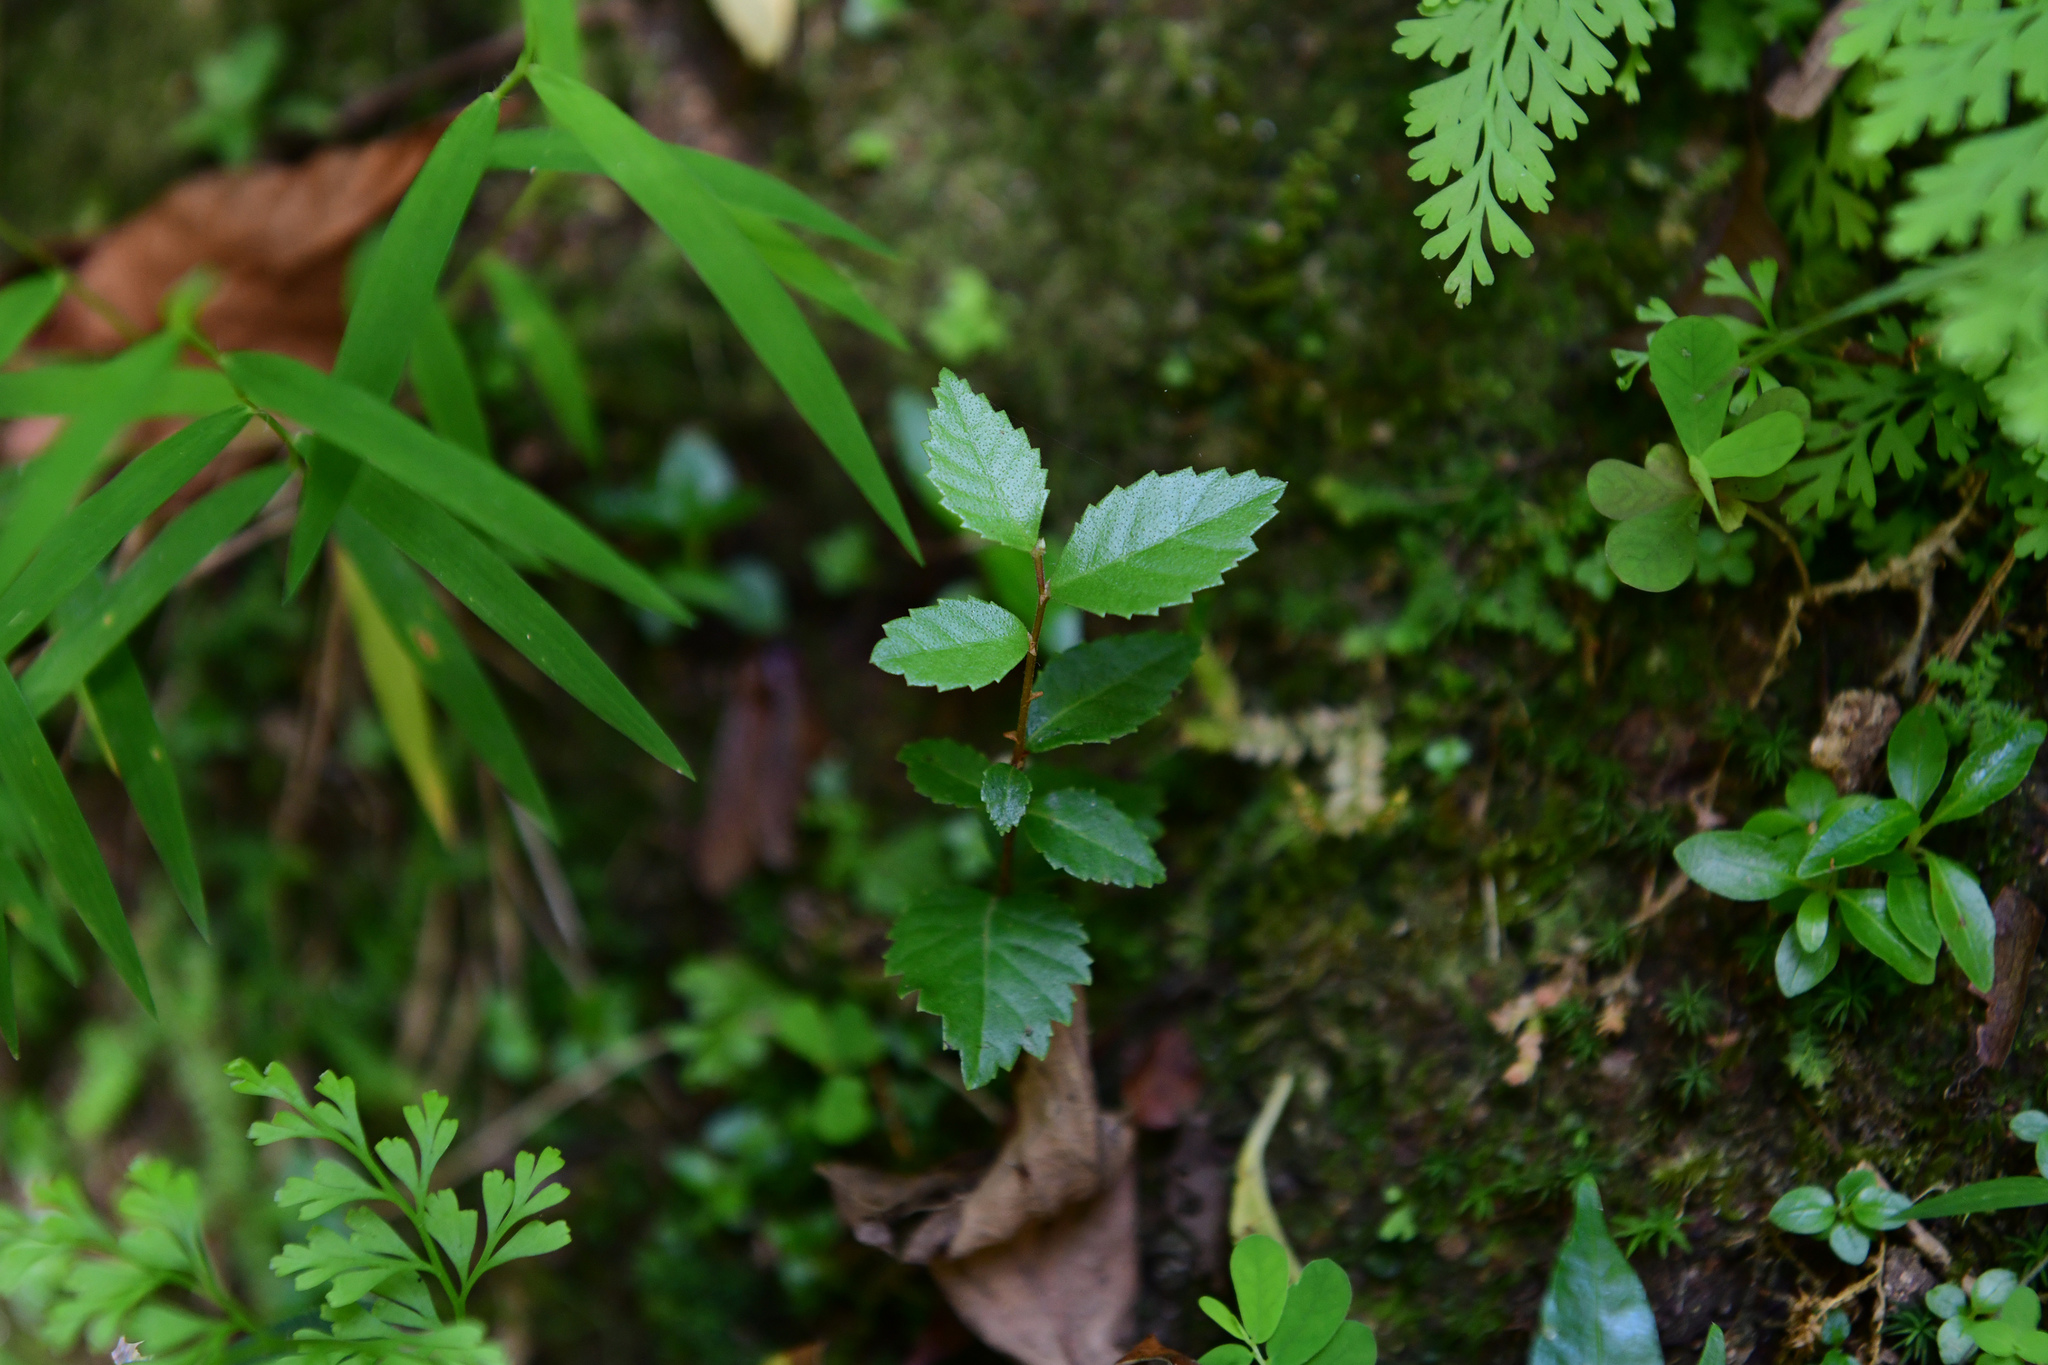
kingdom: Plantae
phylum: Tracheophyta
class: Magnoliopsida
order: Rosales
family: Ulmaceae
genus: Ulmus
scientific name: Ulmus parvifolia
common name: Chinese elm
